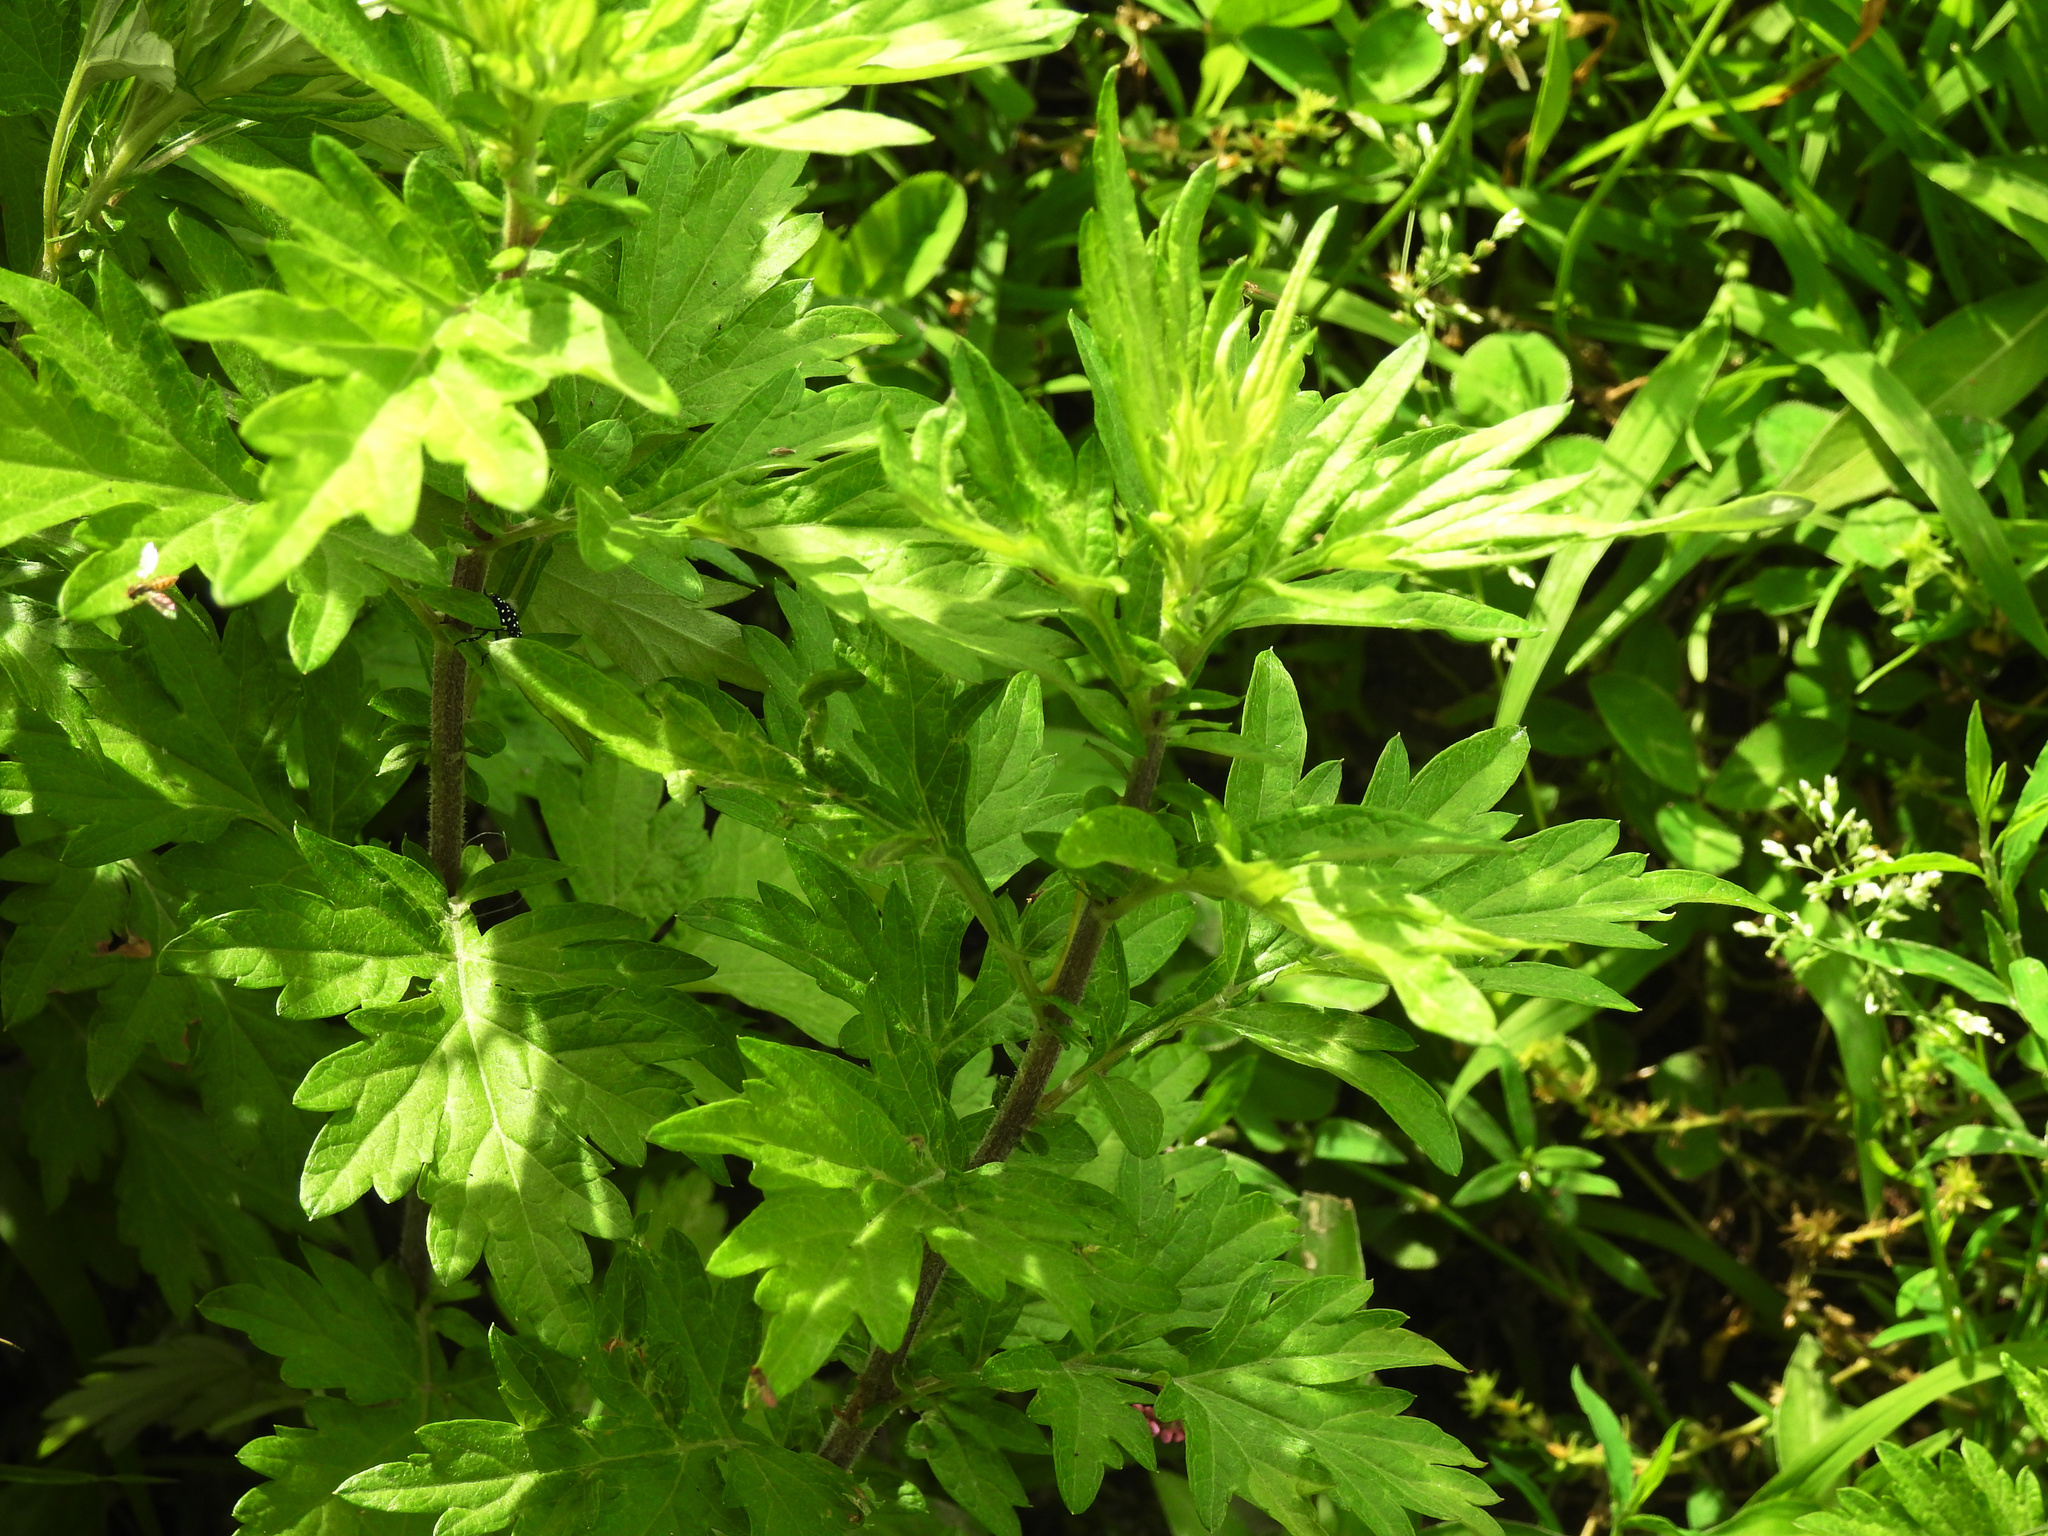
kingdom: Plantae
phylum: Tracheophyta
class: Magnoliopsida
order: Asterales
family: Asteraceae
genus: Artemisia
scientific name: Artemisia vulgaris
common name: Mugwort
